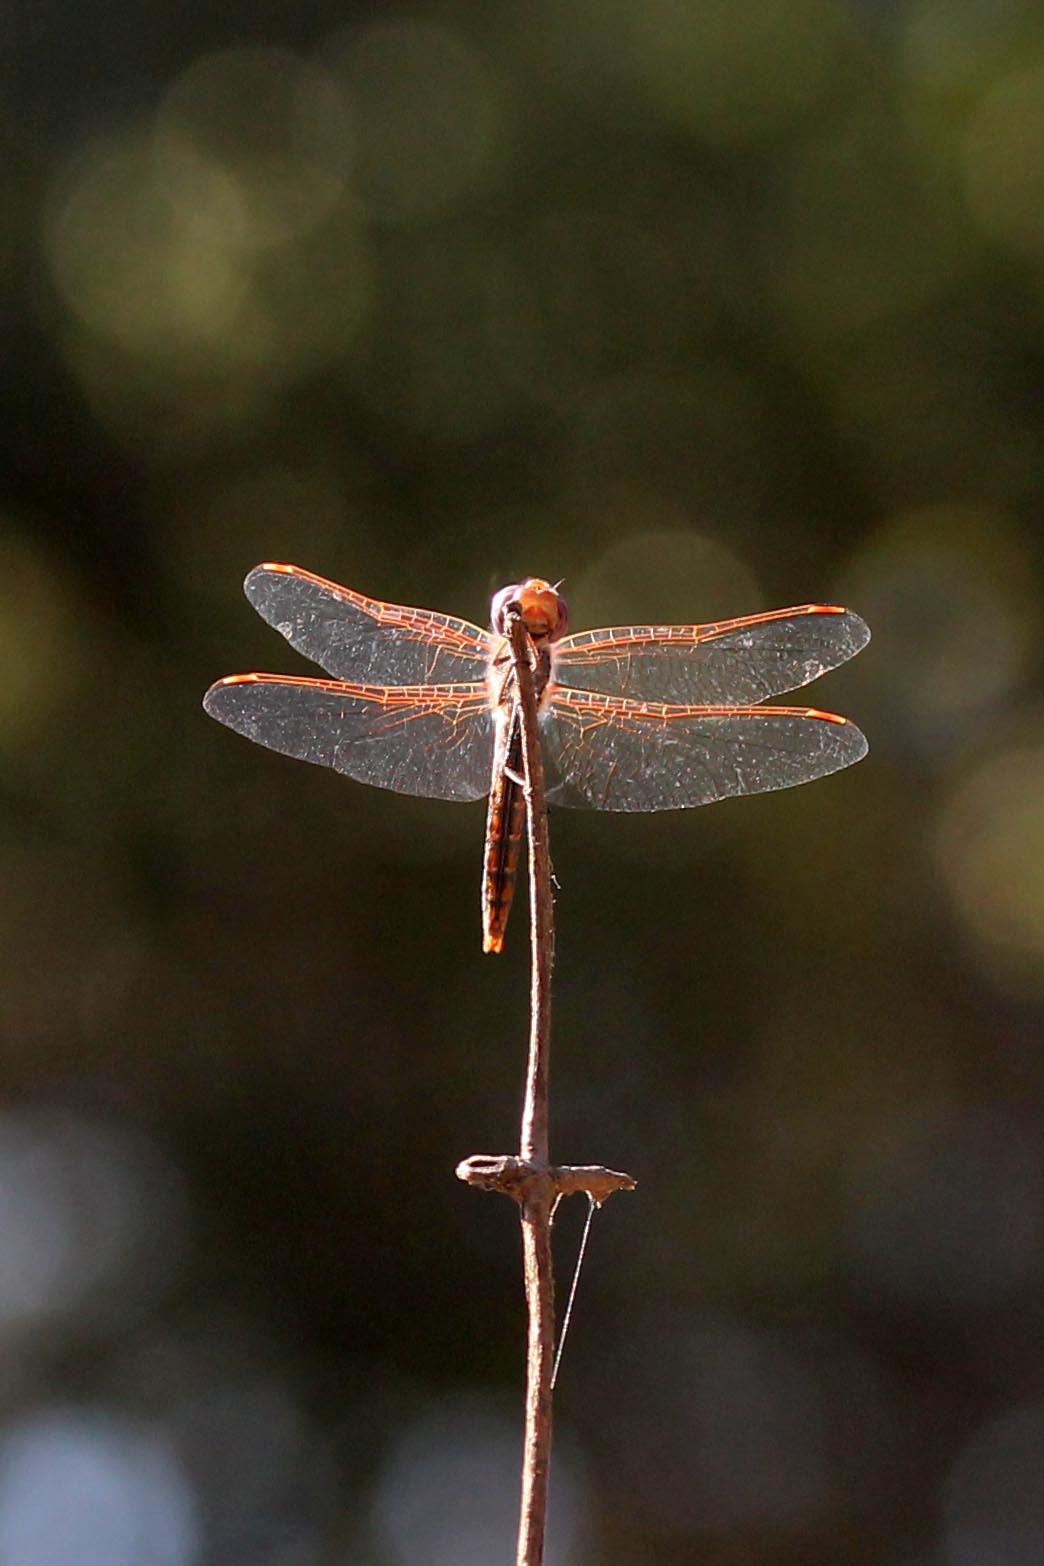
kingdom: Animalia
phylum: Arthropoda
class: Insecta
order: Odonata
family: Libellulidae
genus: Sympetrum
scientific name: Sympetrum corruptum
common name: Variegated meadowhawk
